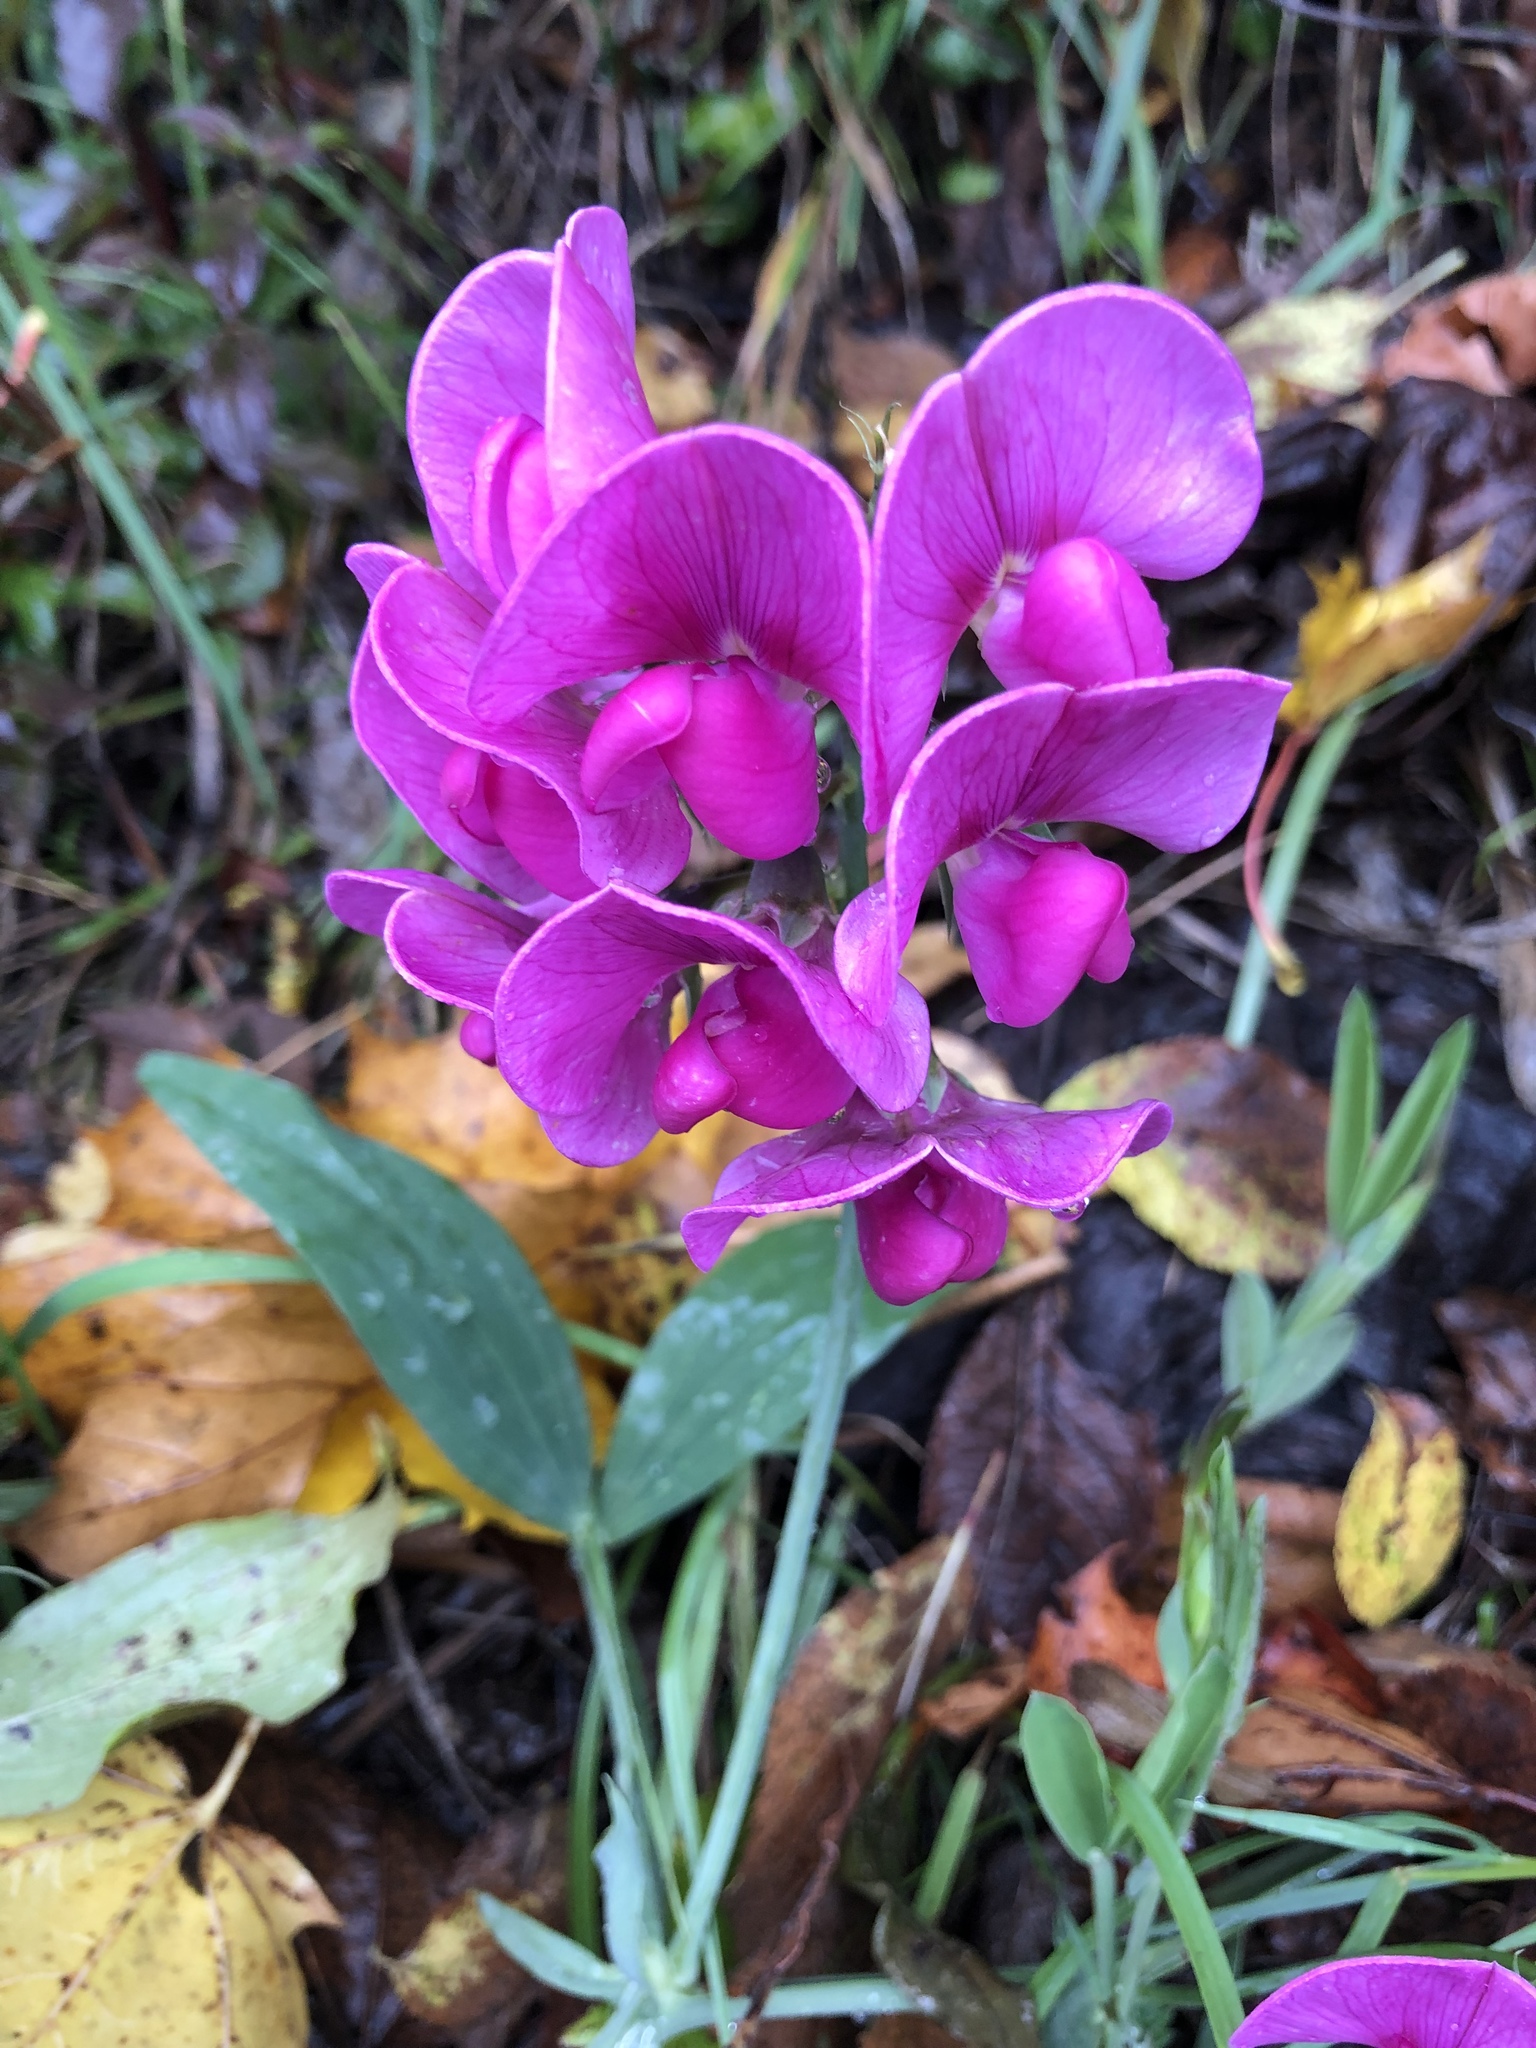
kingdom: Plantae
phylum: Tracheophyta
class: Magnoliopsida
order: Fabales
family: Fabaceae
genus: Lathyrus
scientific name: Lathyrus latifolius
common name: Perennial pea
